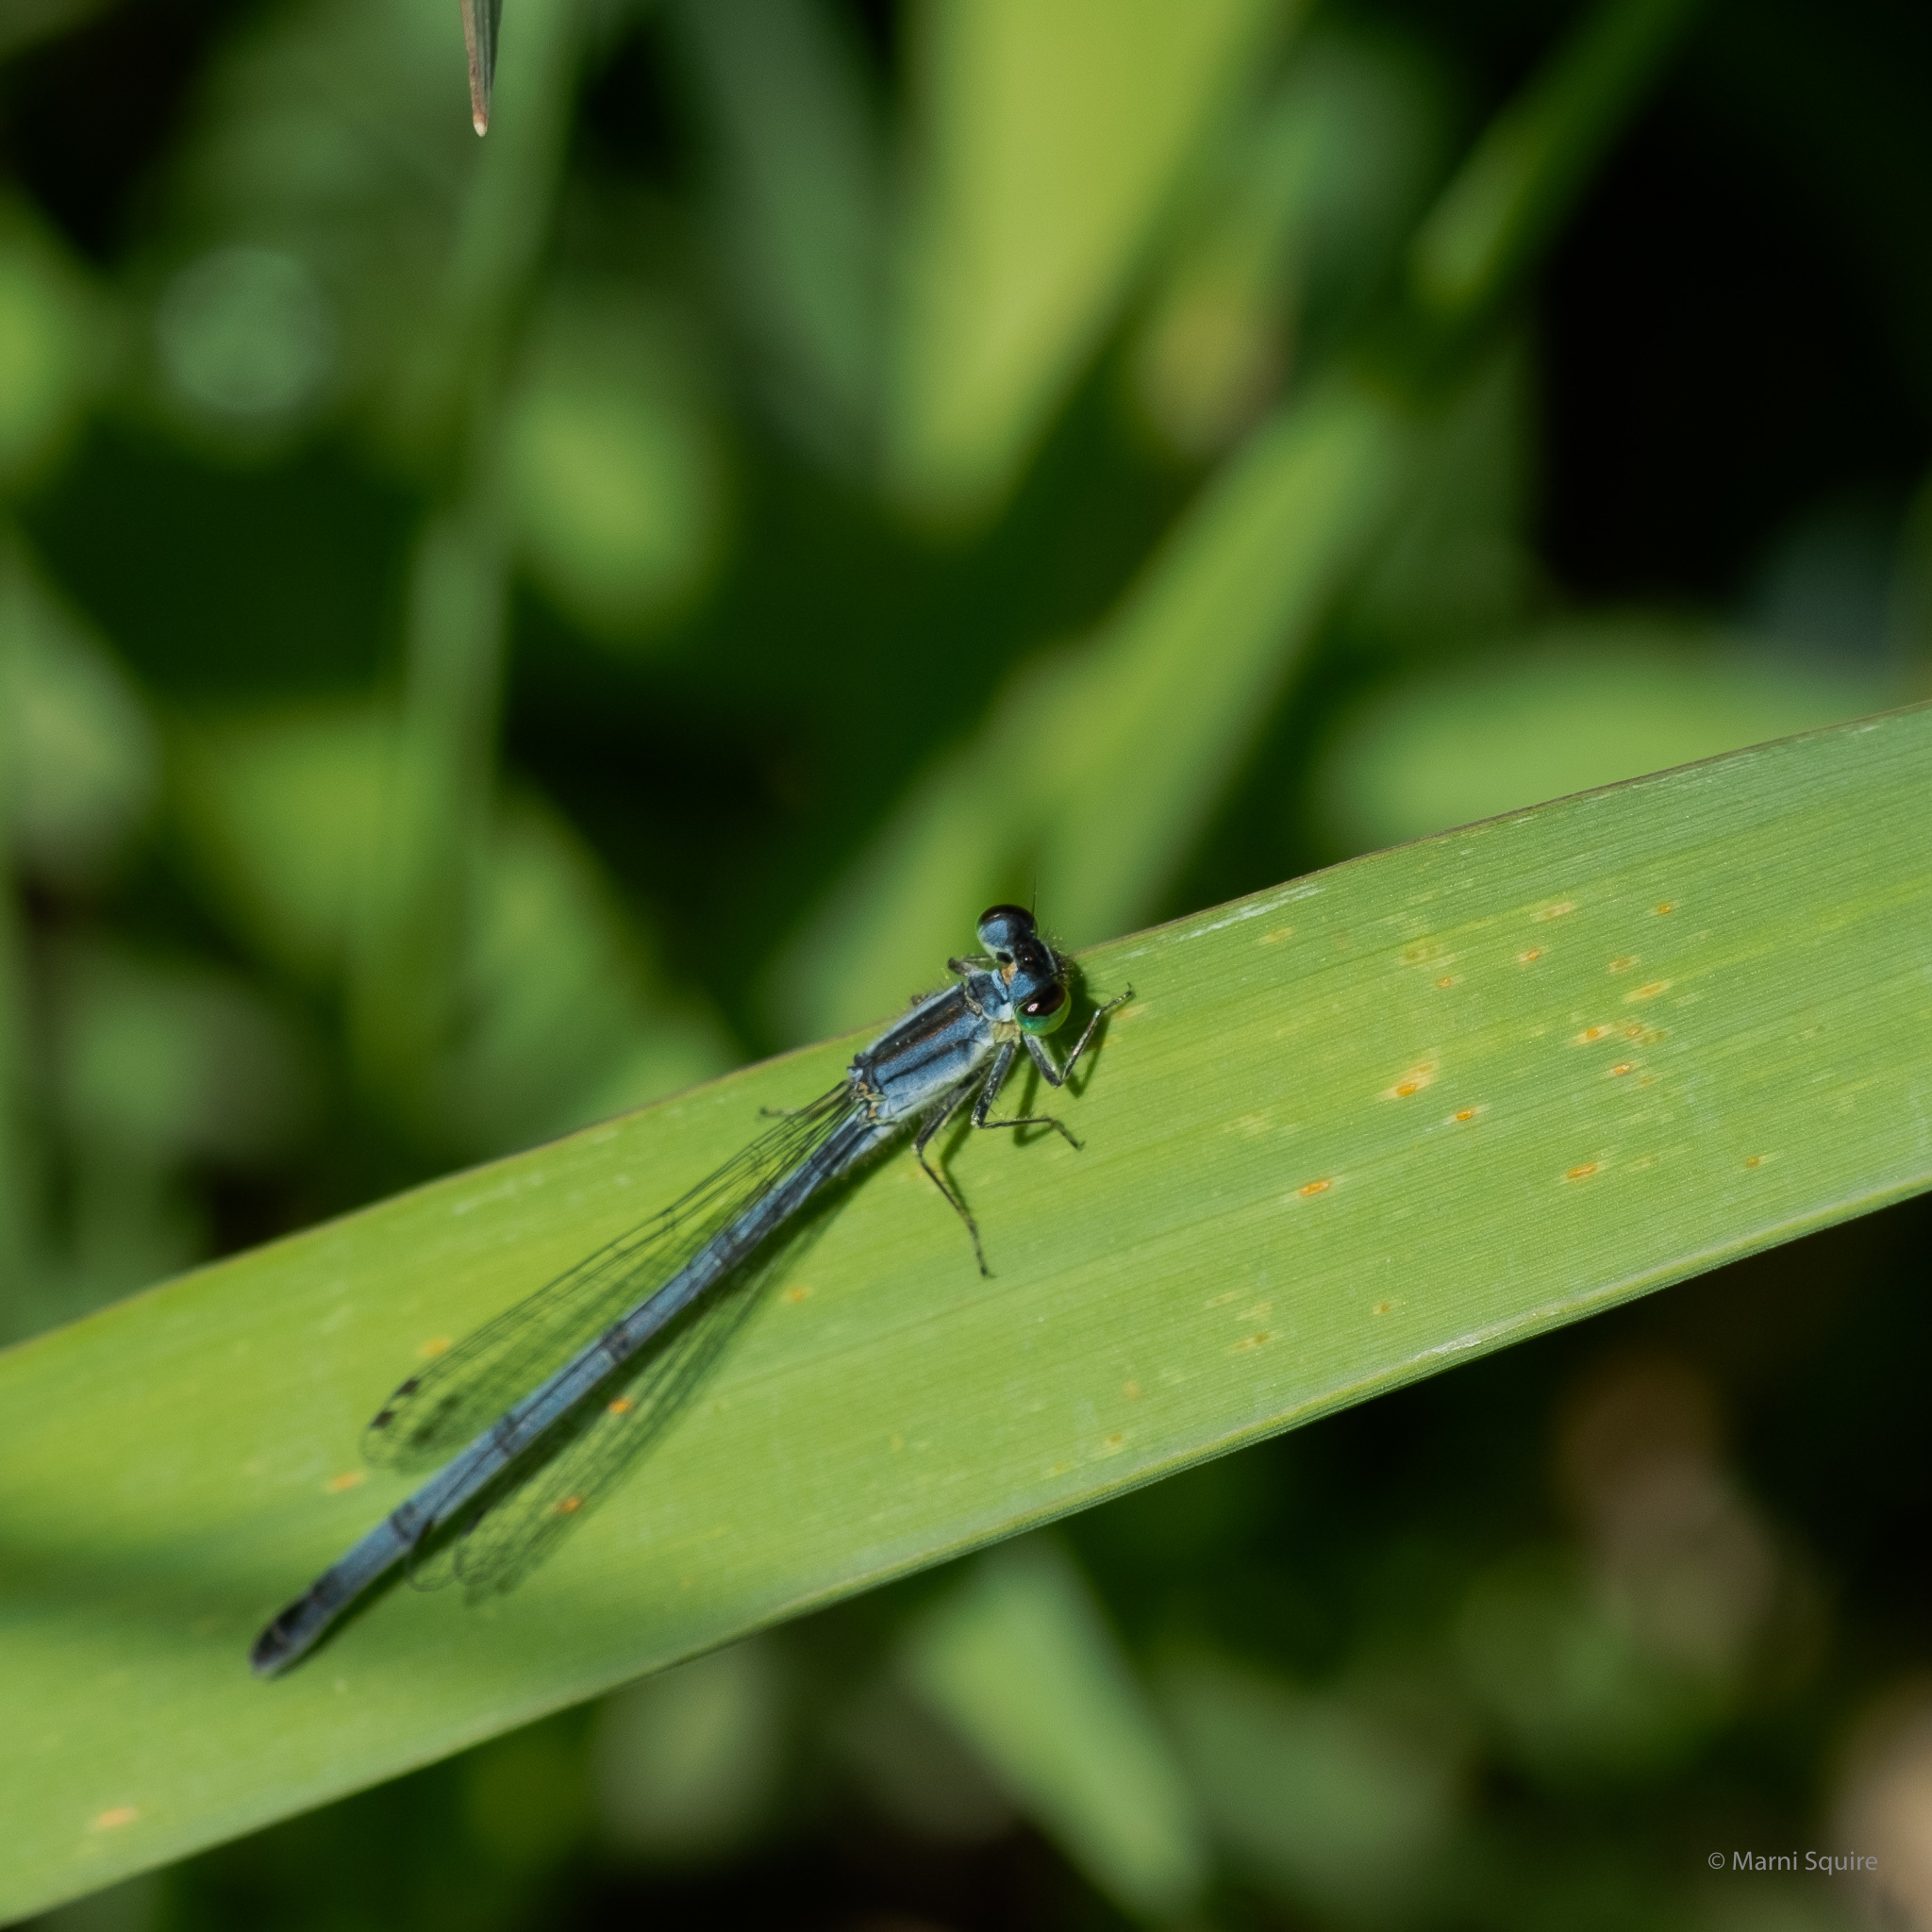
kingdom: Animalia
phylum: Arthropoda
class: Insecta
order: Odonata
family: Coenagrionidae
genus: Ischnura
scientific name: Ischnura verticalis
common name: Eastern forktail
